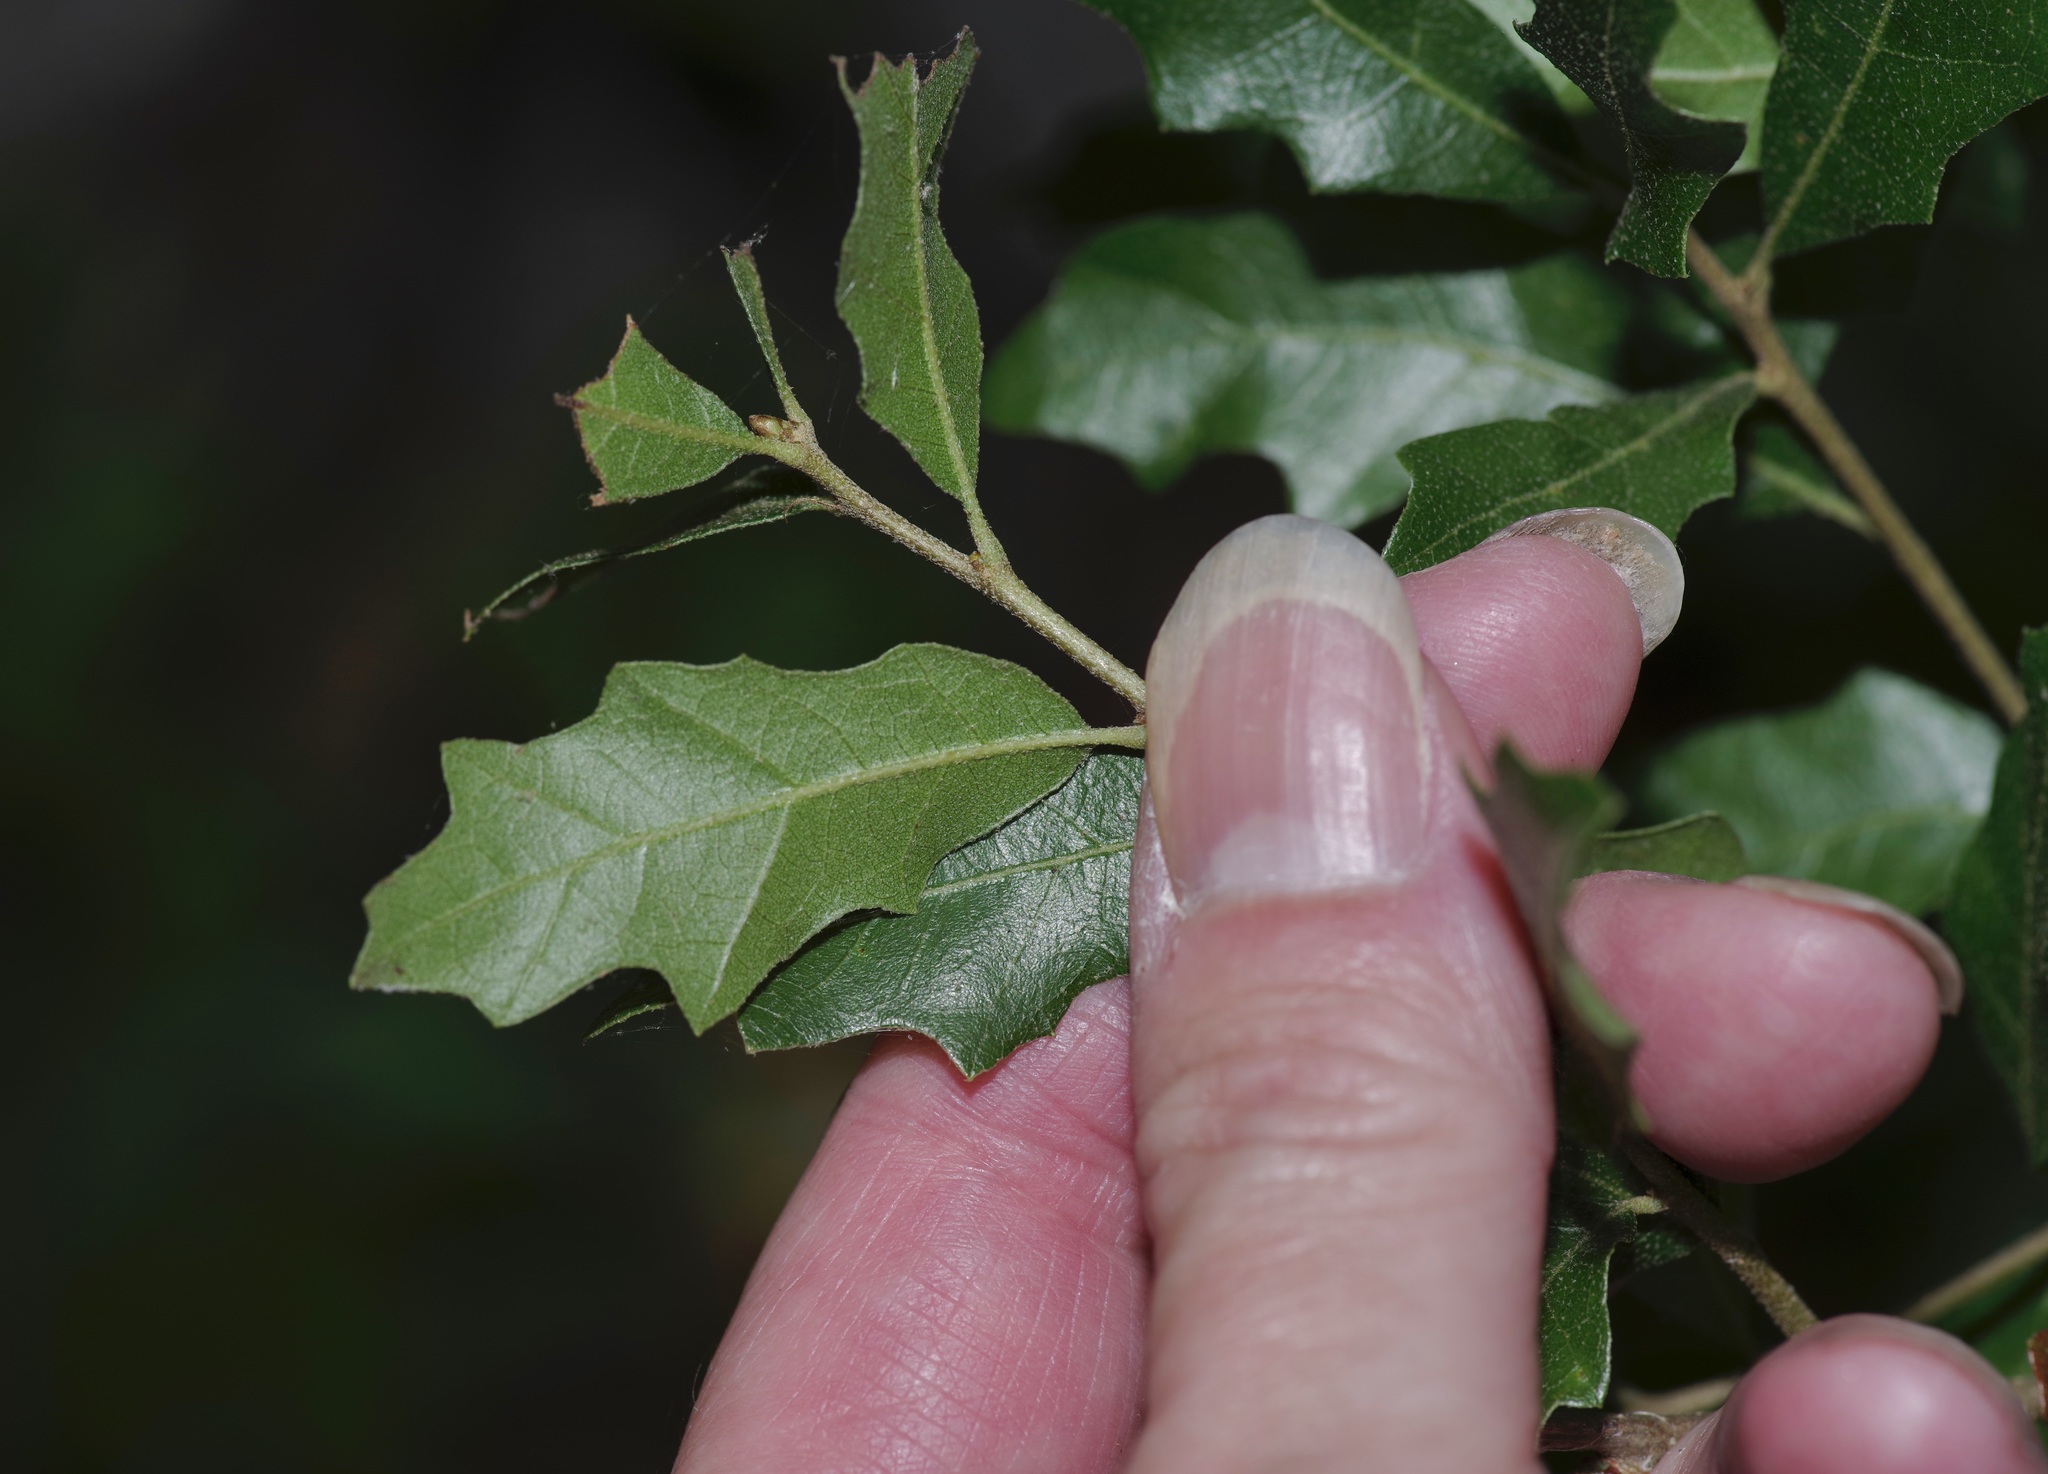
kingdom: Plantae
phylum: Tracheophyta
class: Magnoliopsida
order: Fagales
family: Fagaceae
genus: Quercus
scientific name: Quercus vaseyana
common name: Sandpaper oak
